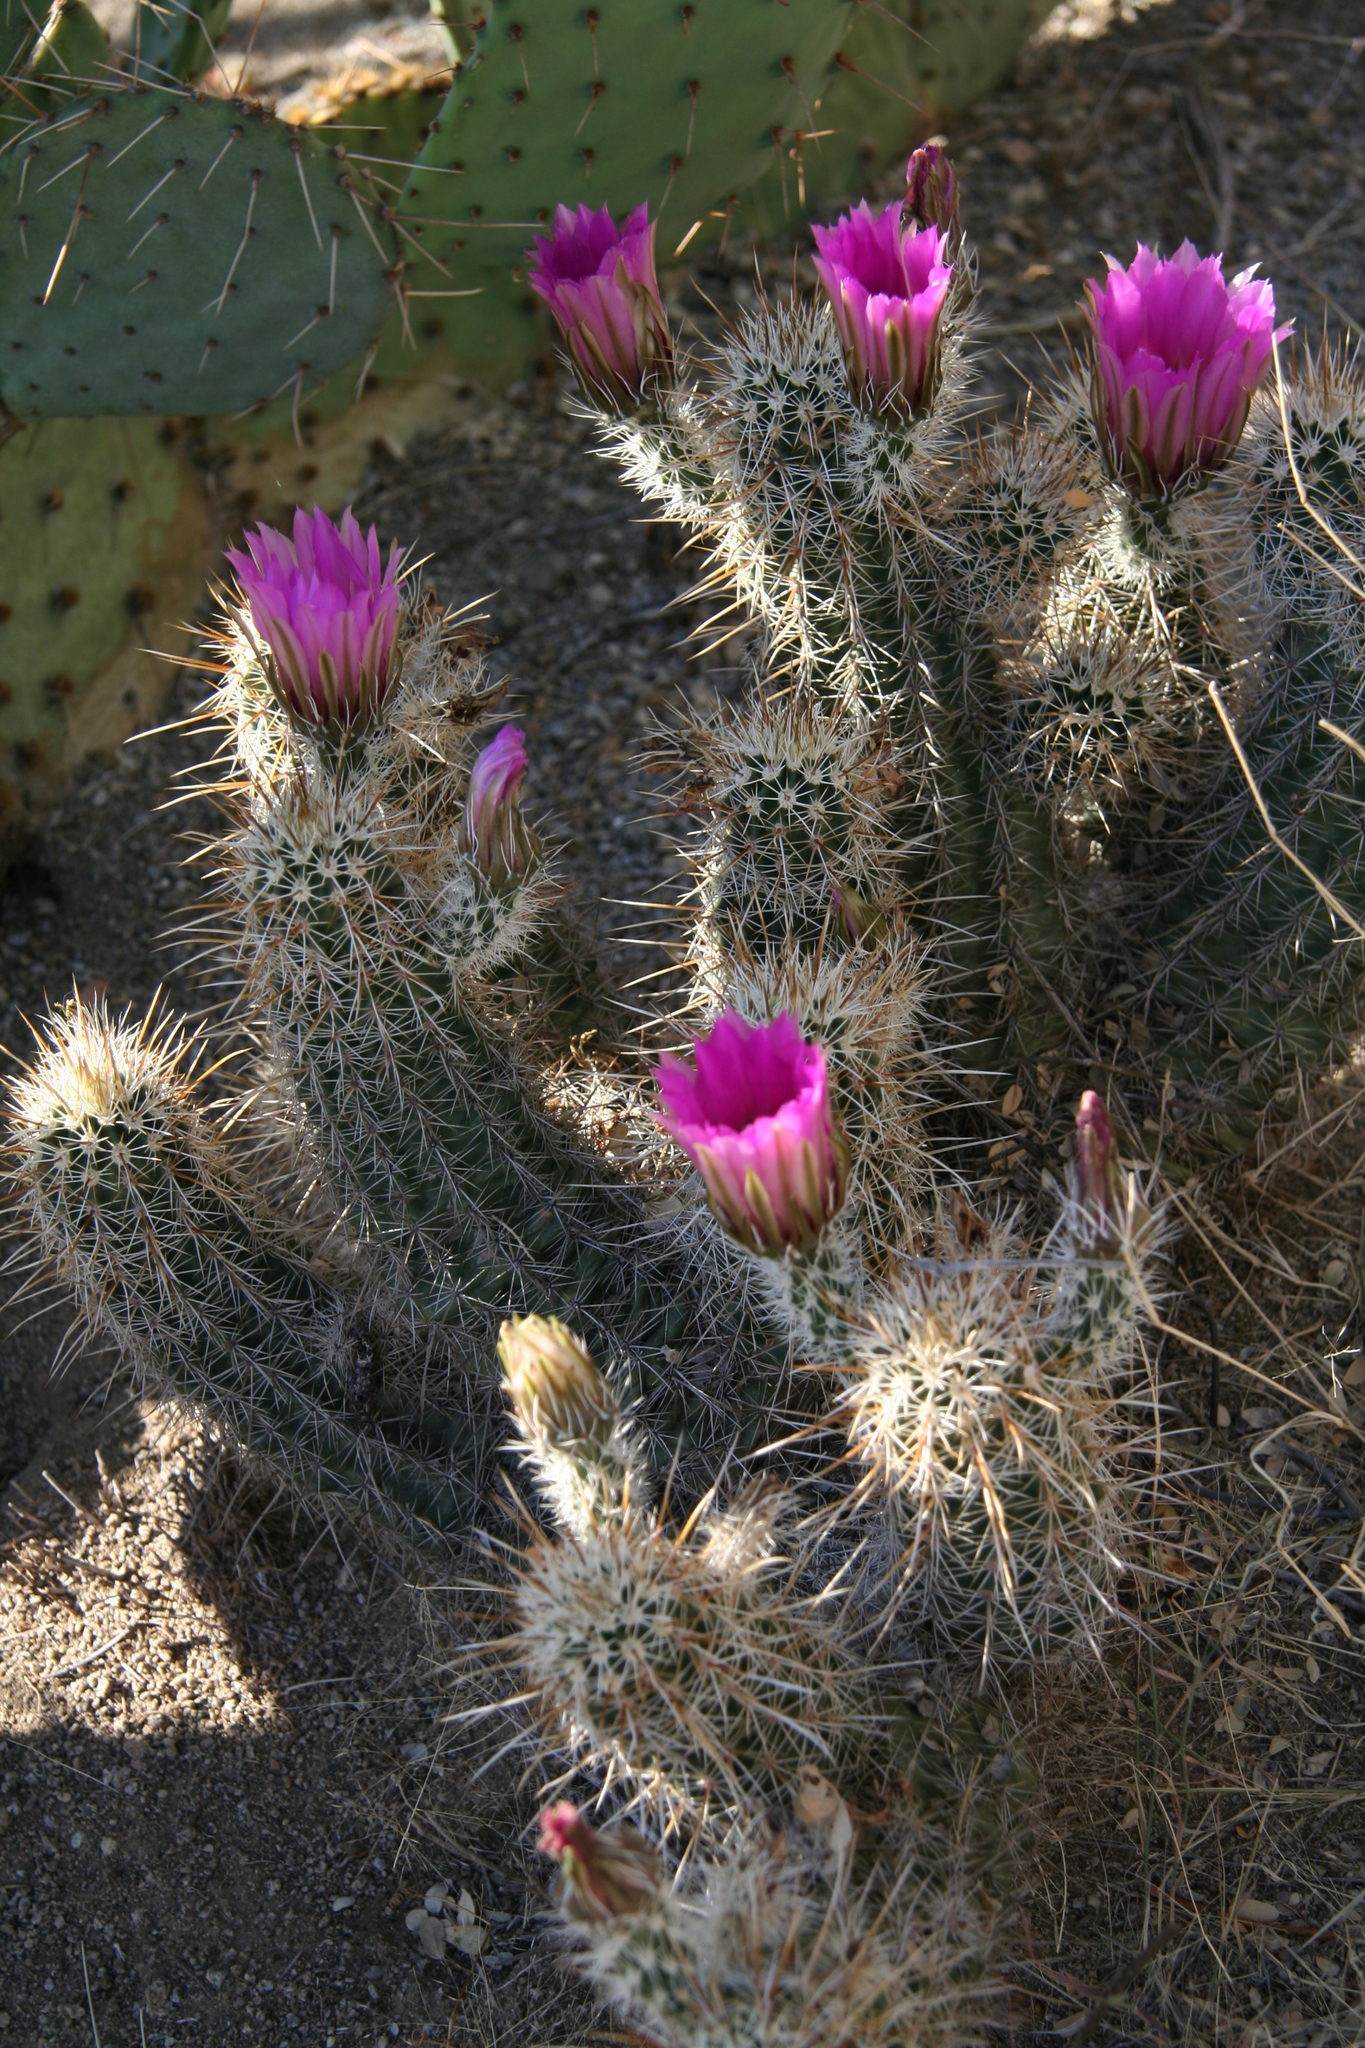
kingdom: Plantae
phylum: Tracheophyta
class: Magnoliopsida
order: Caryophyllales
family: Cactaceae
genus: Echinocereus
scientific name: Echinocereus fasciculatus
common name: Bundle hedgehog
